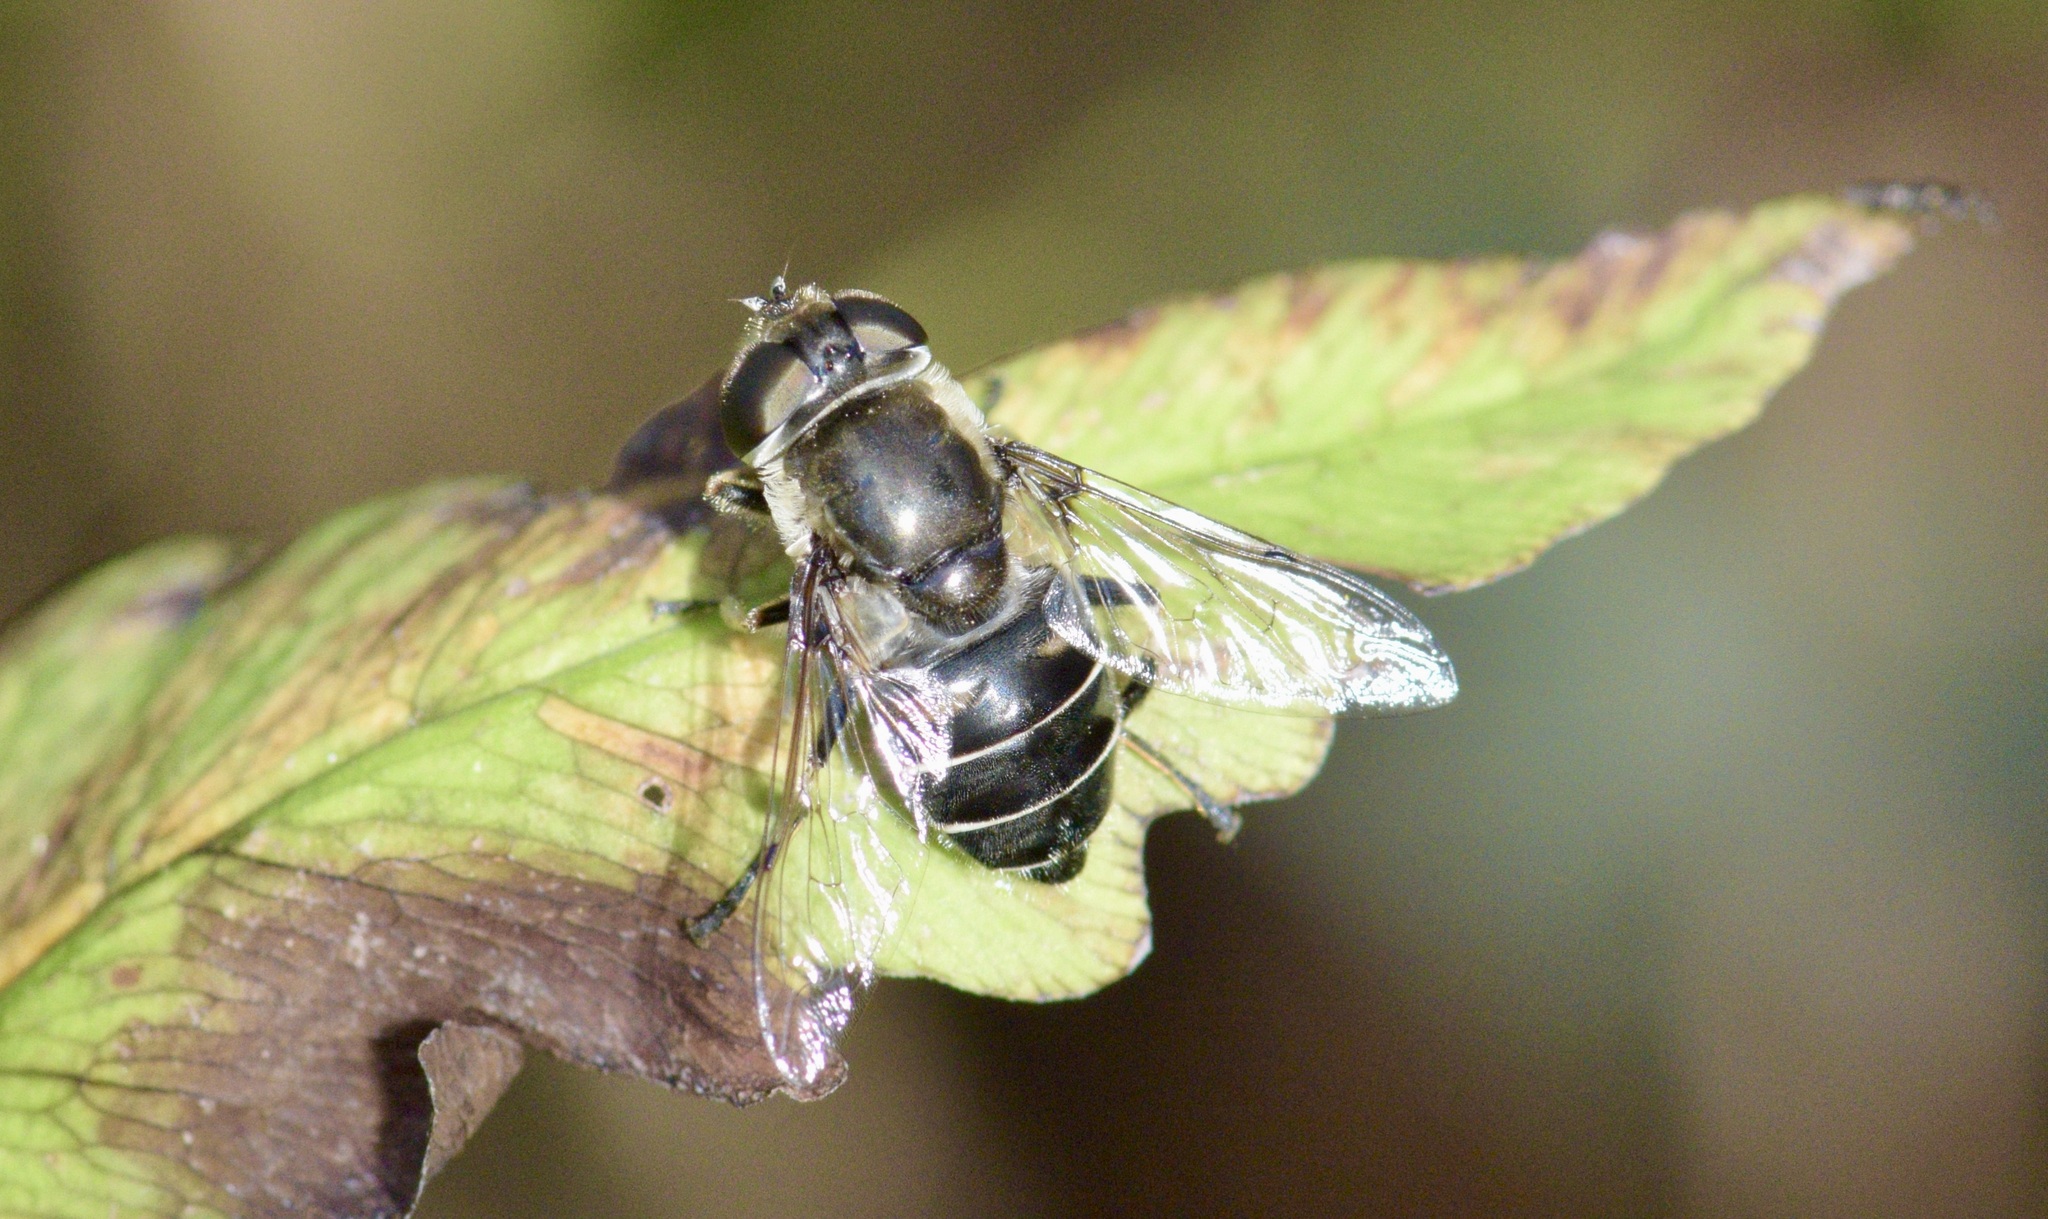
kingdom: Animalia
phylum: Arthropoda
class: Insecta
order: Diptera
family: Syrphidae
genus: Eristalis
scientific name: Eristalis dimidiata
